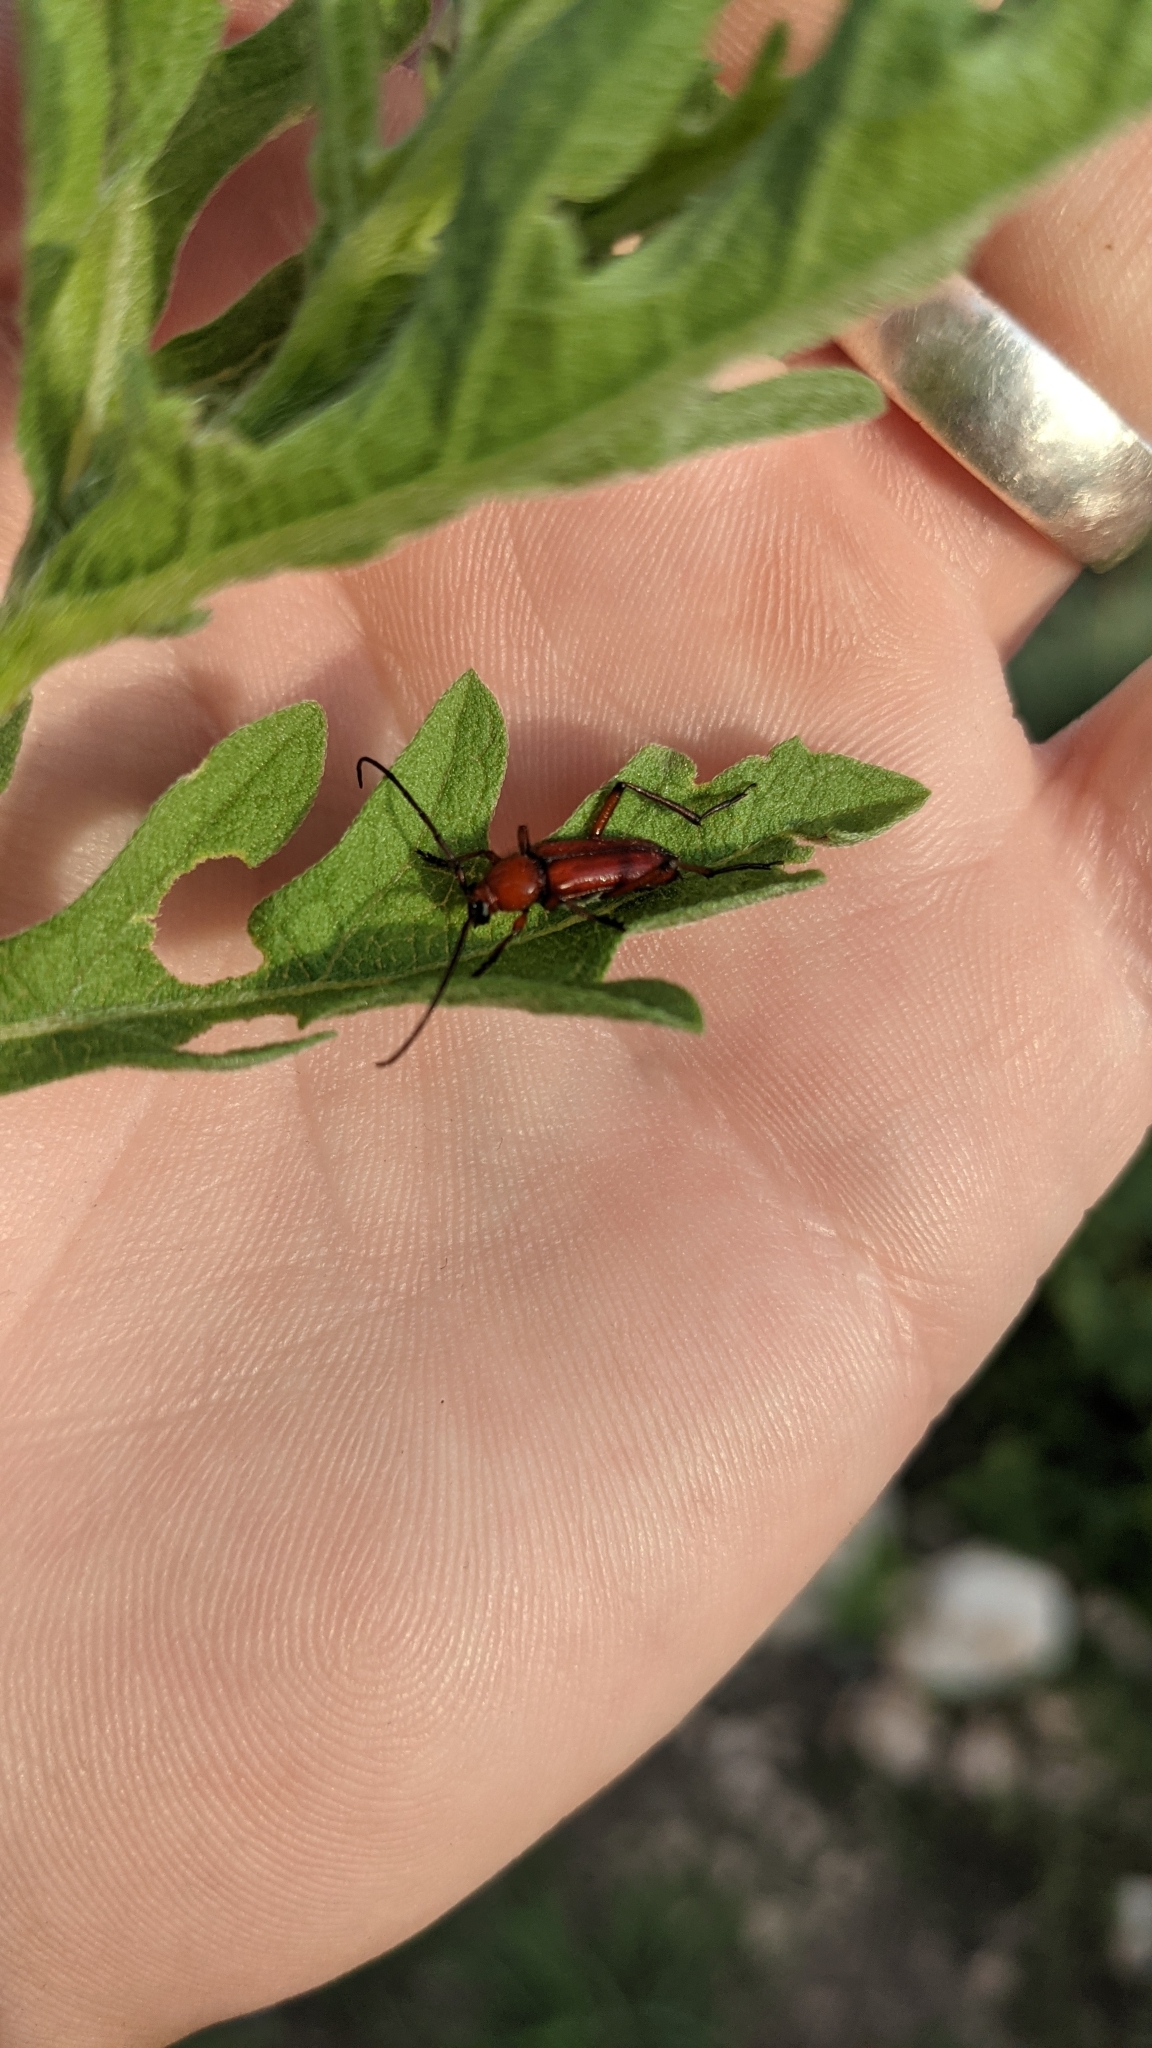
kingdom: Animalia
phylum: Arthropoda
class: Insecta
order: Coleoptera
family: Cerambycidae
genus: Batyle
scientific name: Batyle suturalis
